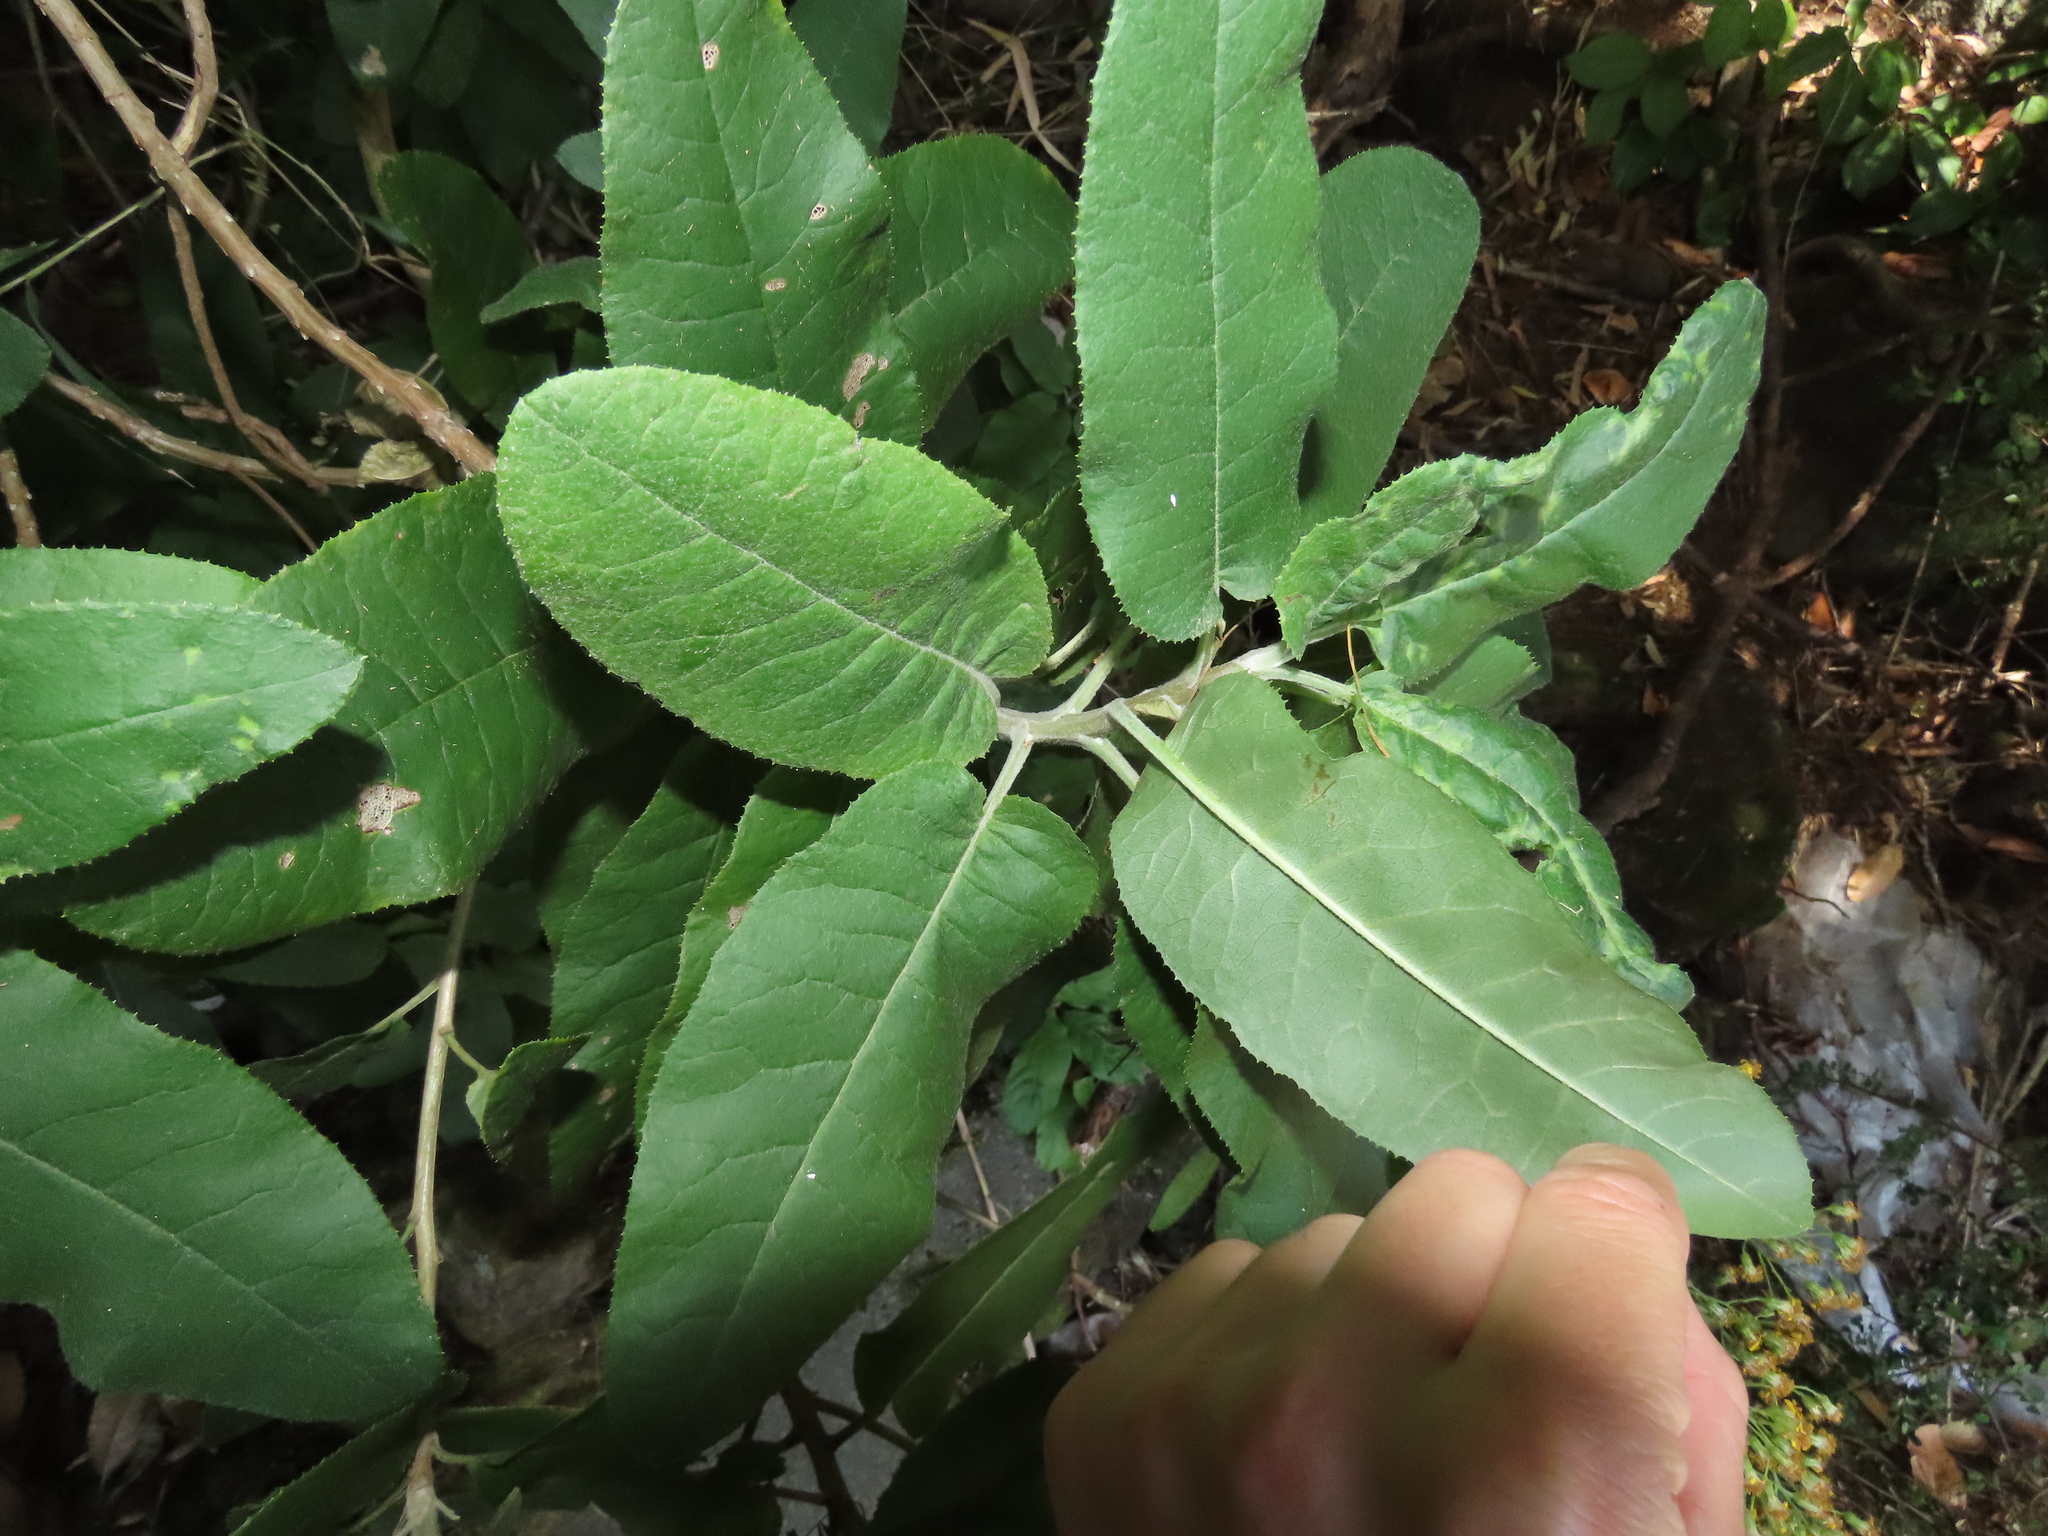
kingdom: Plantae
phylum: Tracheophyta
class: Magnoliopsida
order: Asterales
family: Asteraceae
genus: Acrisione
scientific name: Acrisione denticulata
